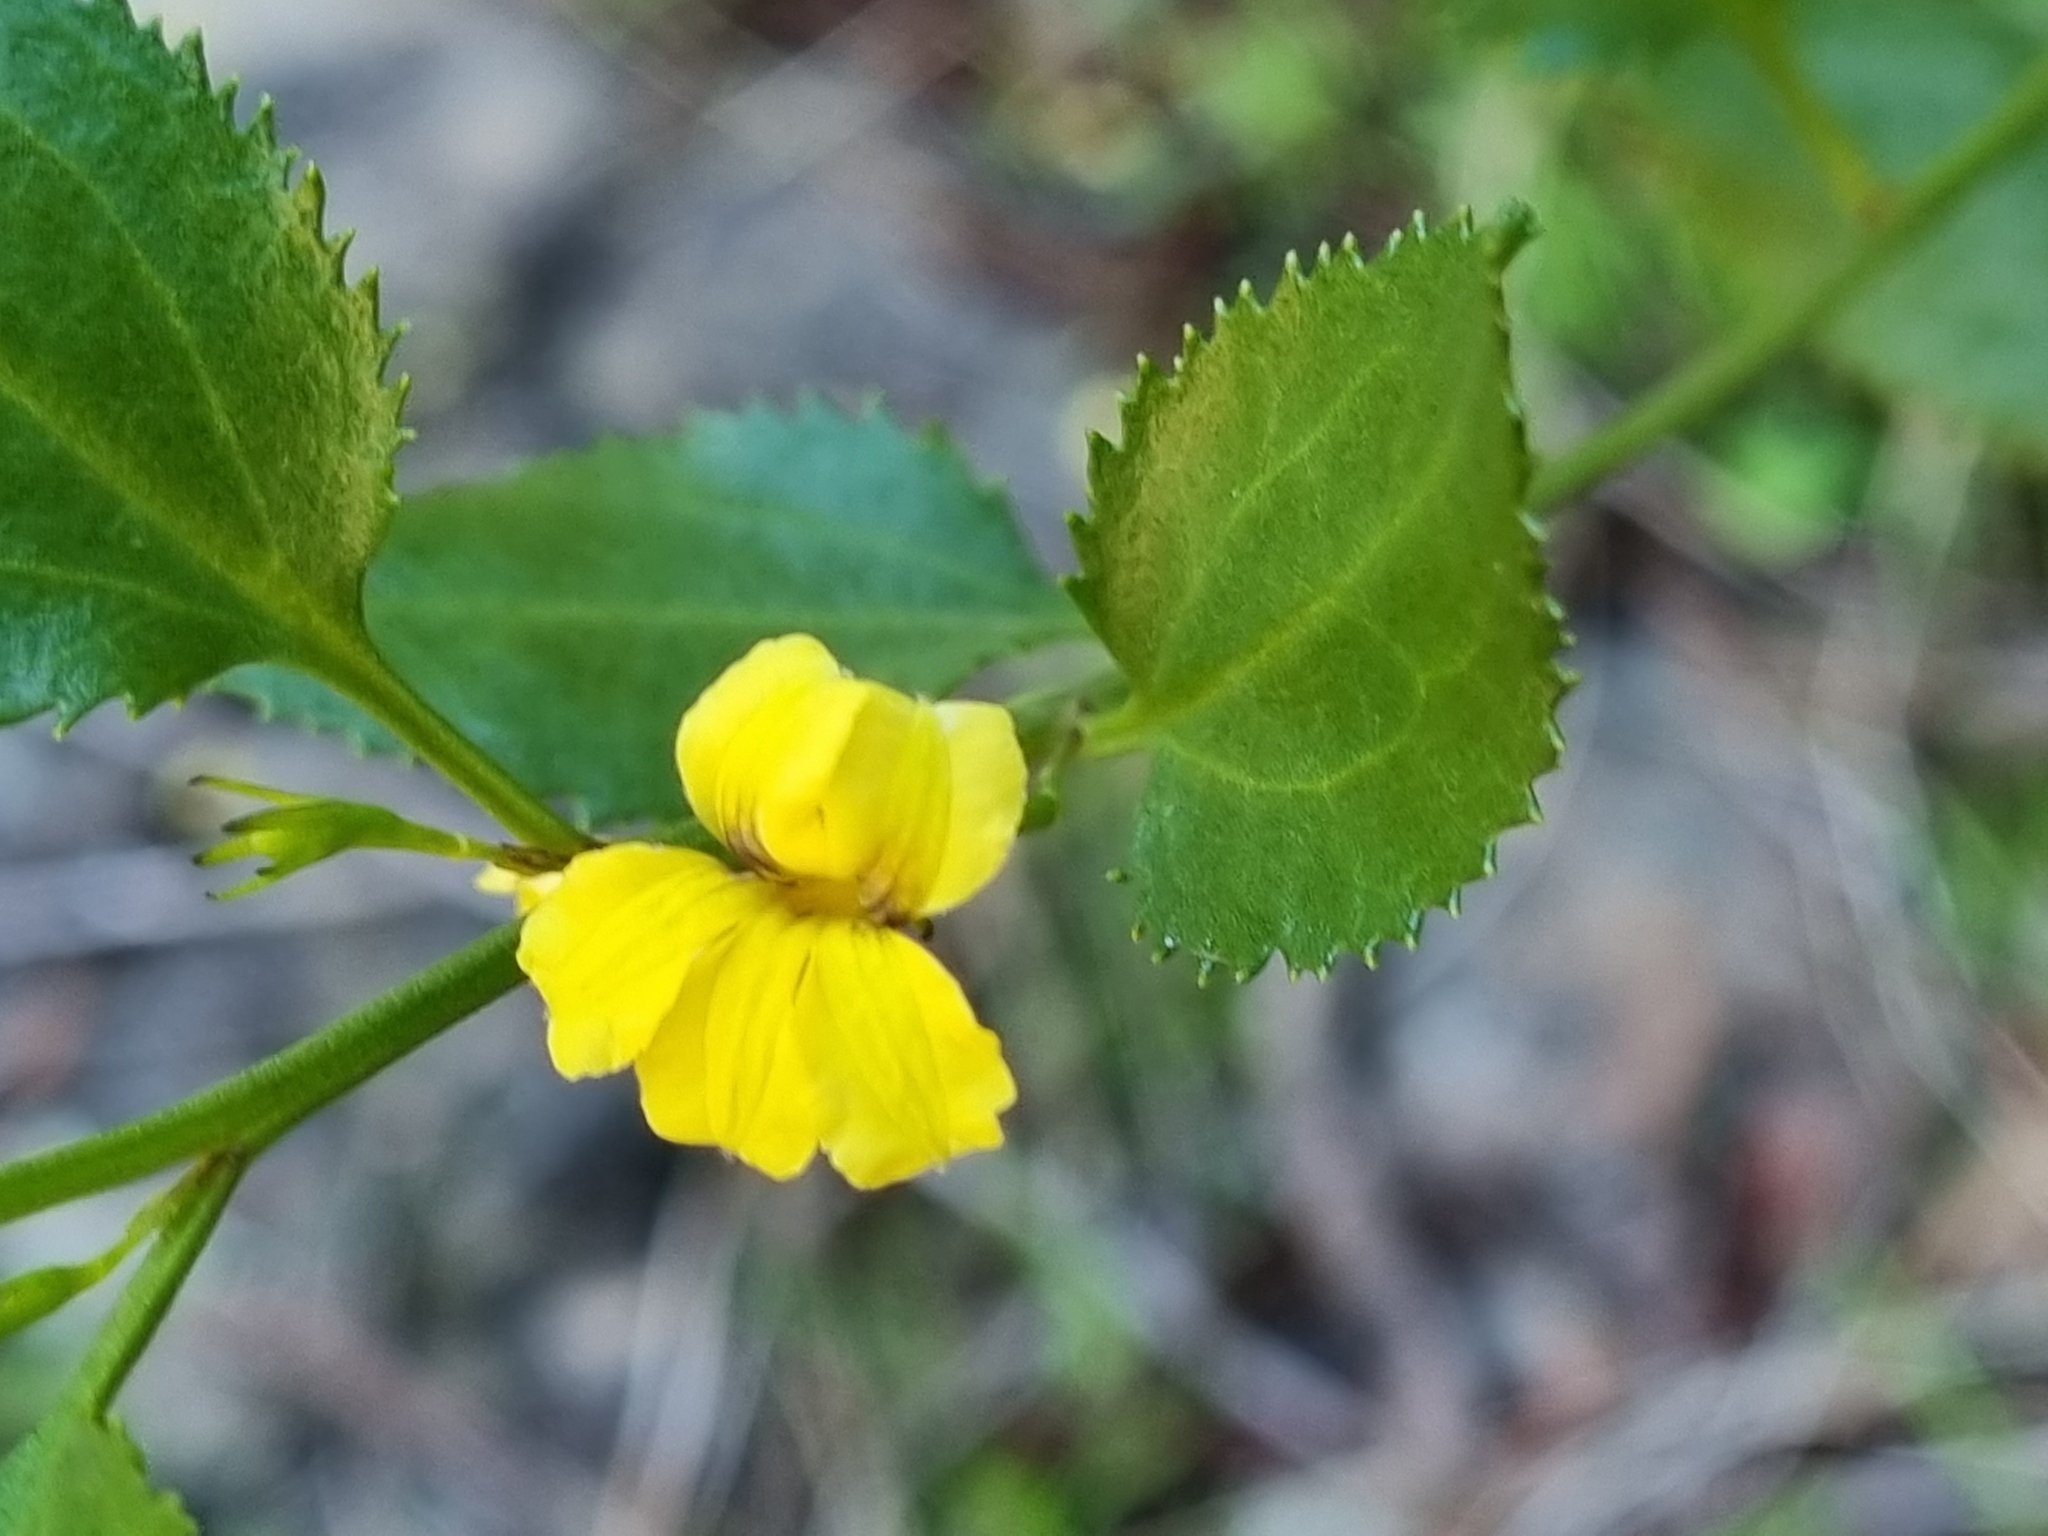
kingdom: Plantae
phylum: Tracheophyta
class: Magnoliopsida
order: Asterales
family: Goodeniaceae
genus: Goodenia
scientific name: Goodenia ovata
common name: Hop goodenia
